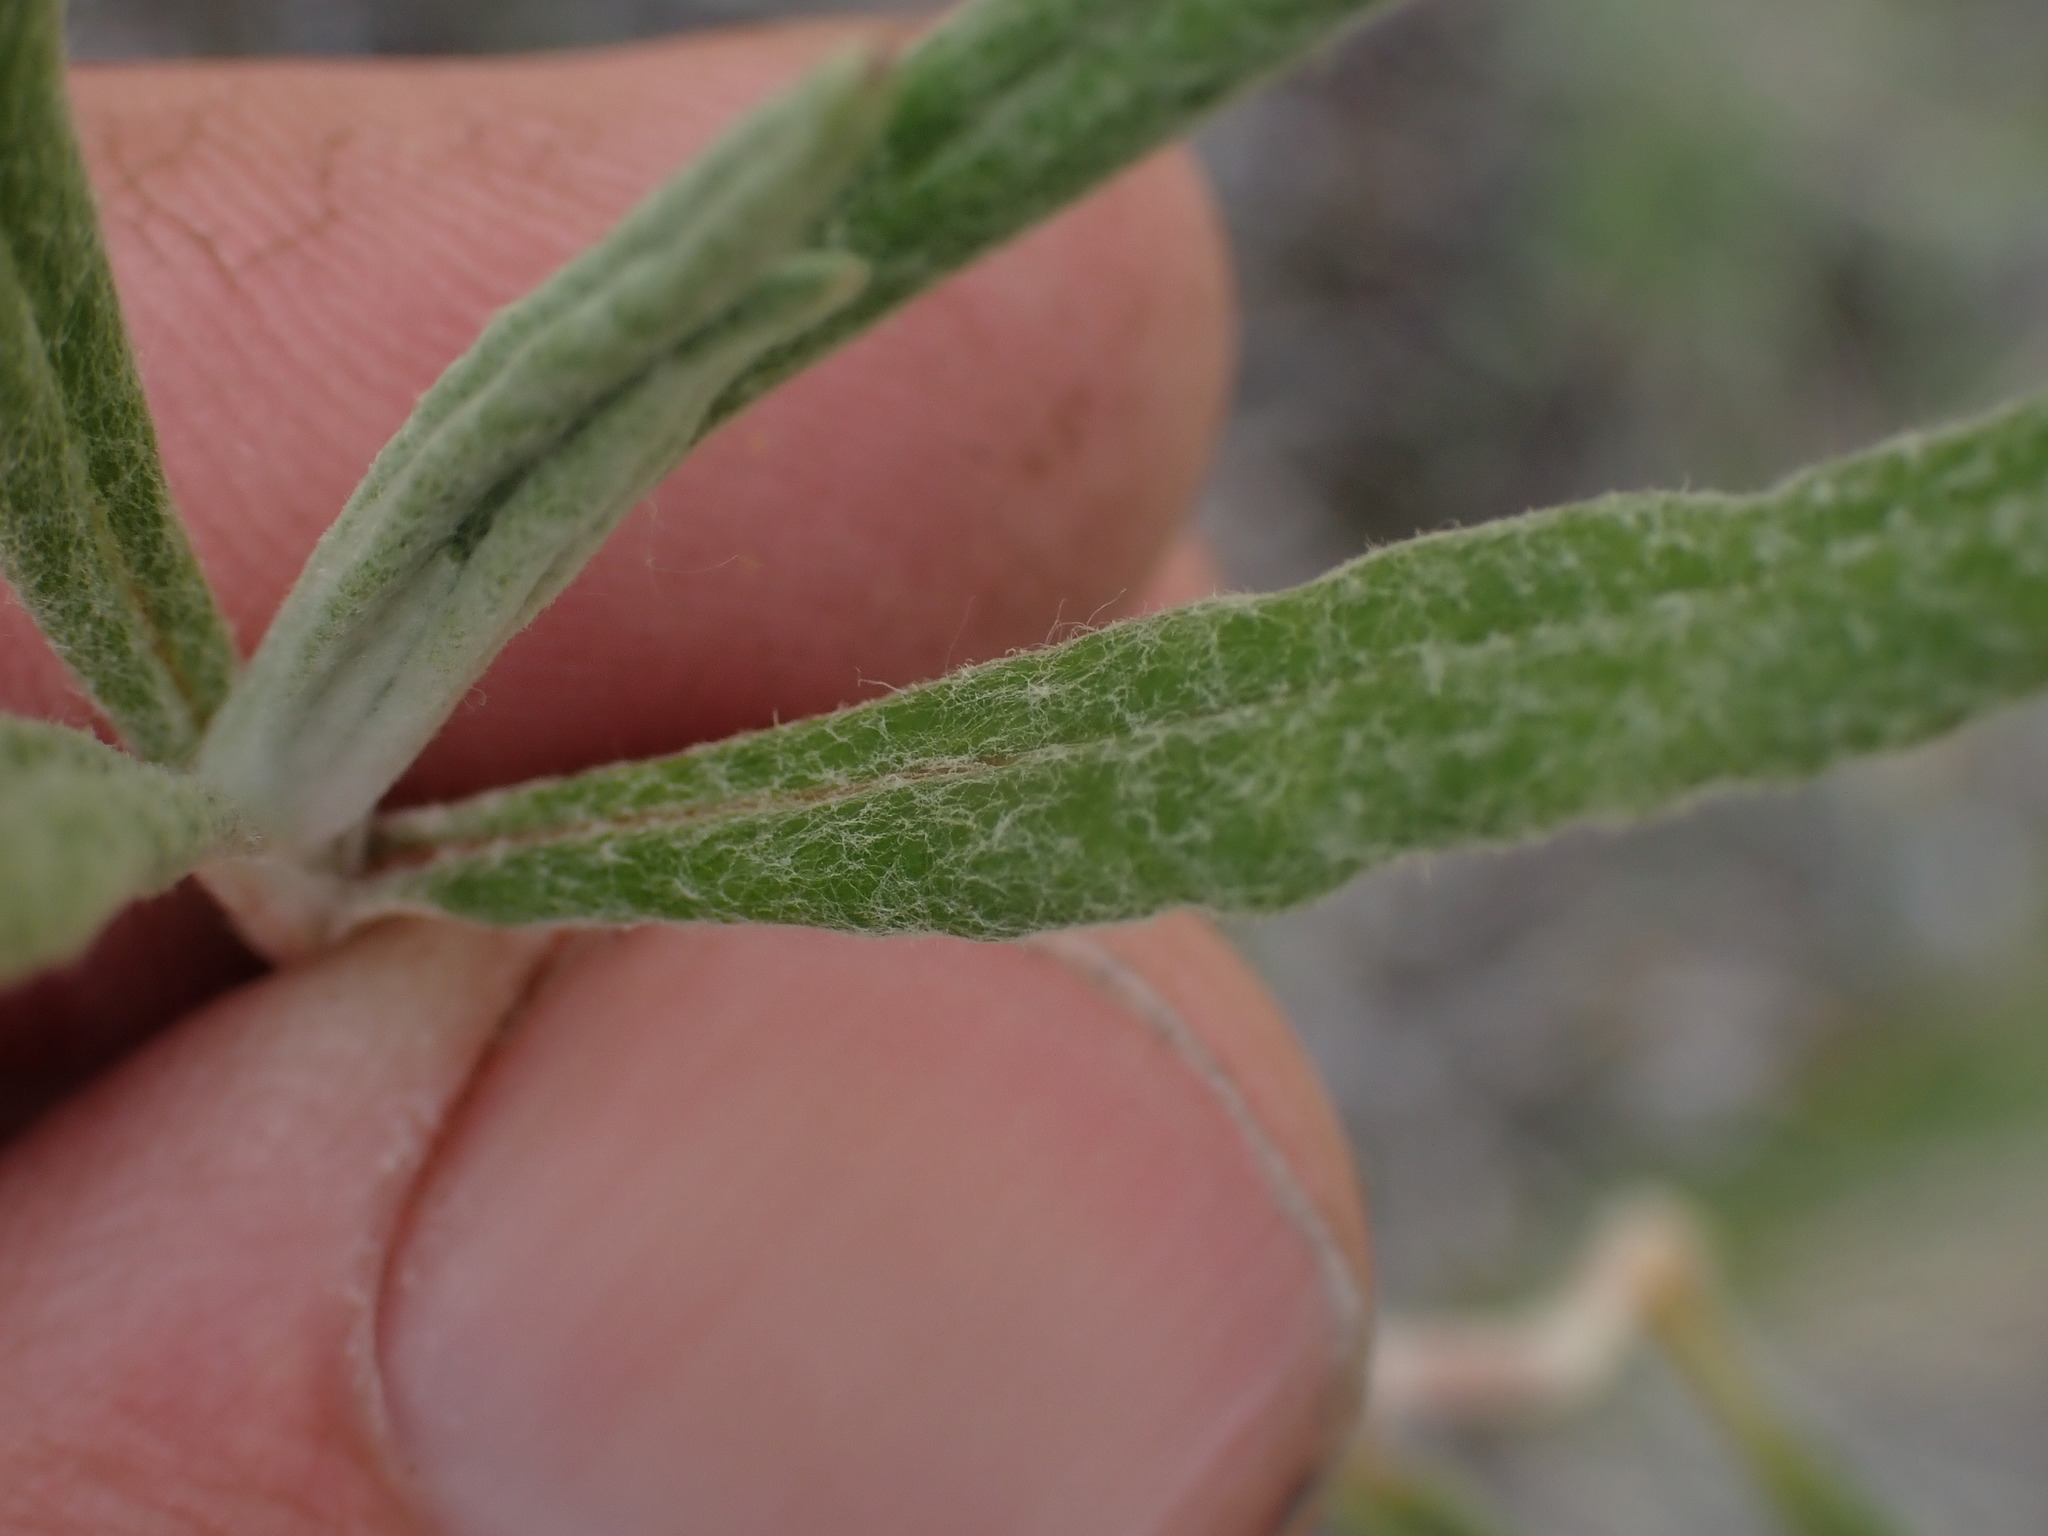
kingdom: Plantae
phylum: Tracheophyta
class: Magnoliopsida
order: Caryophyllales
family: Polygonaceae
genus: Eriogonum
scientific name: Eriogonum heracleoides
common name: Wyeth's buckwheat
